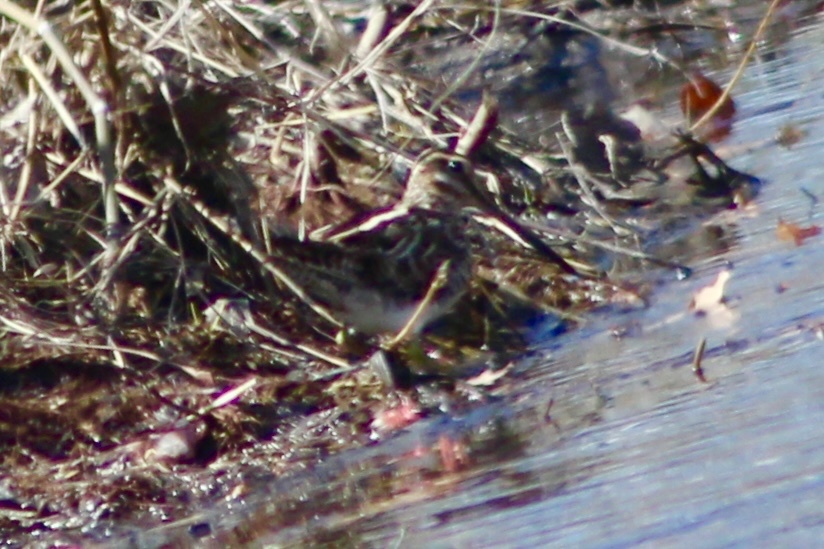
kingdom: Animalia
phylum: Chordata
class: Aves
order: Charadriiformes
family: Scolopacidae
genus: Gallinago
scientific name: Gallinago delicata
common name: Wilson's snipe
